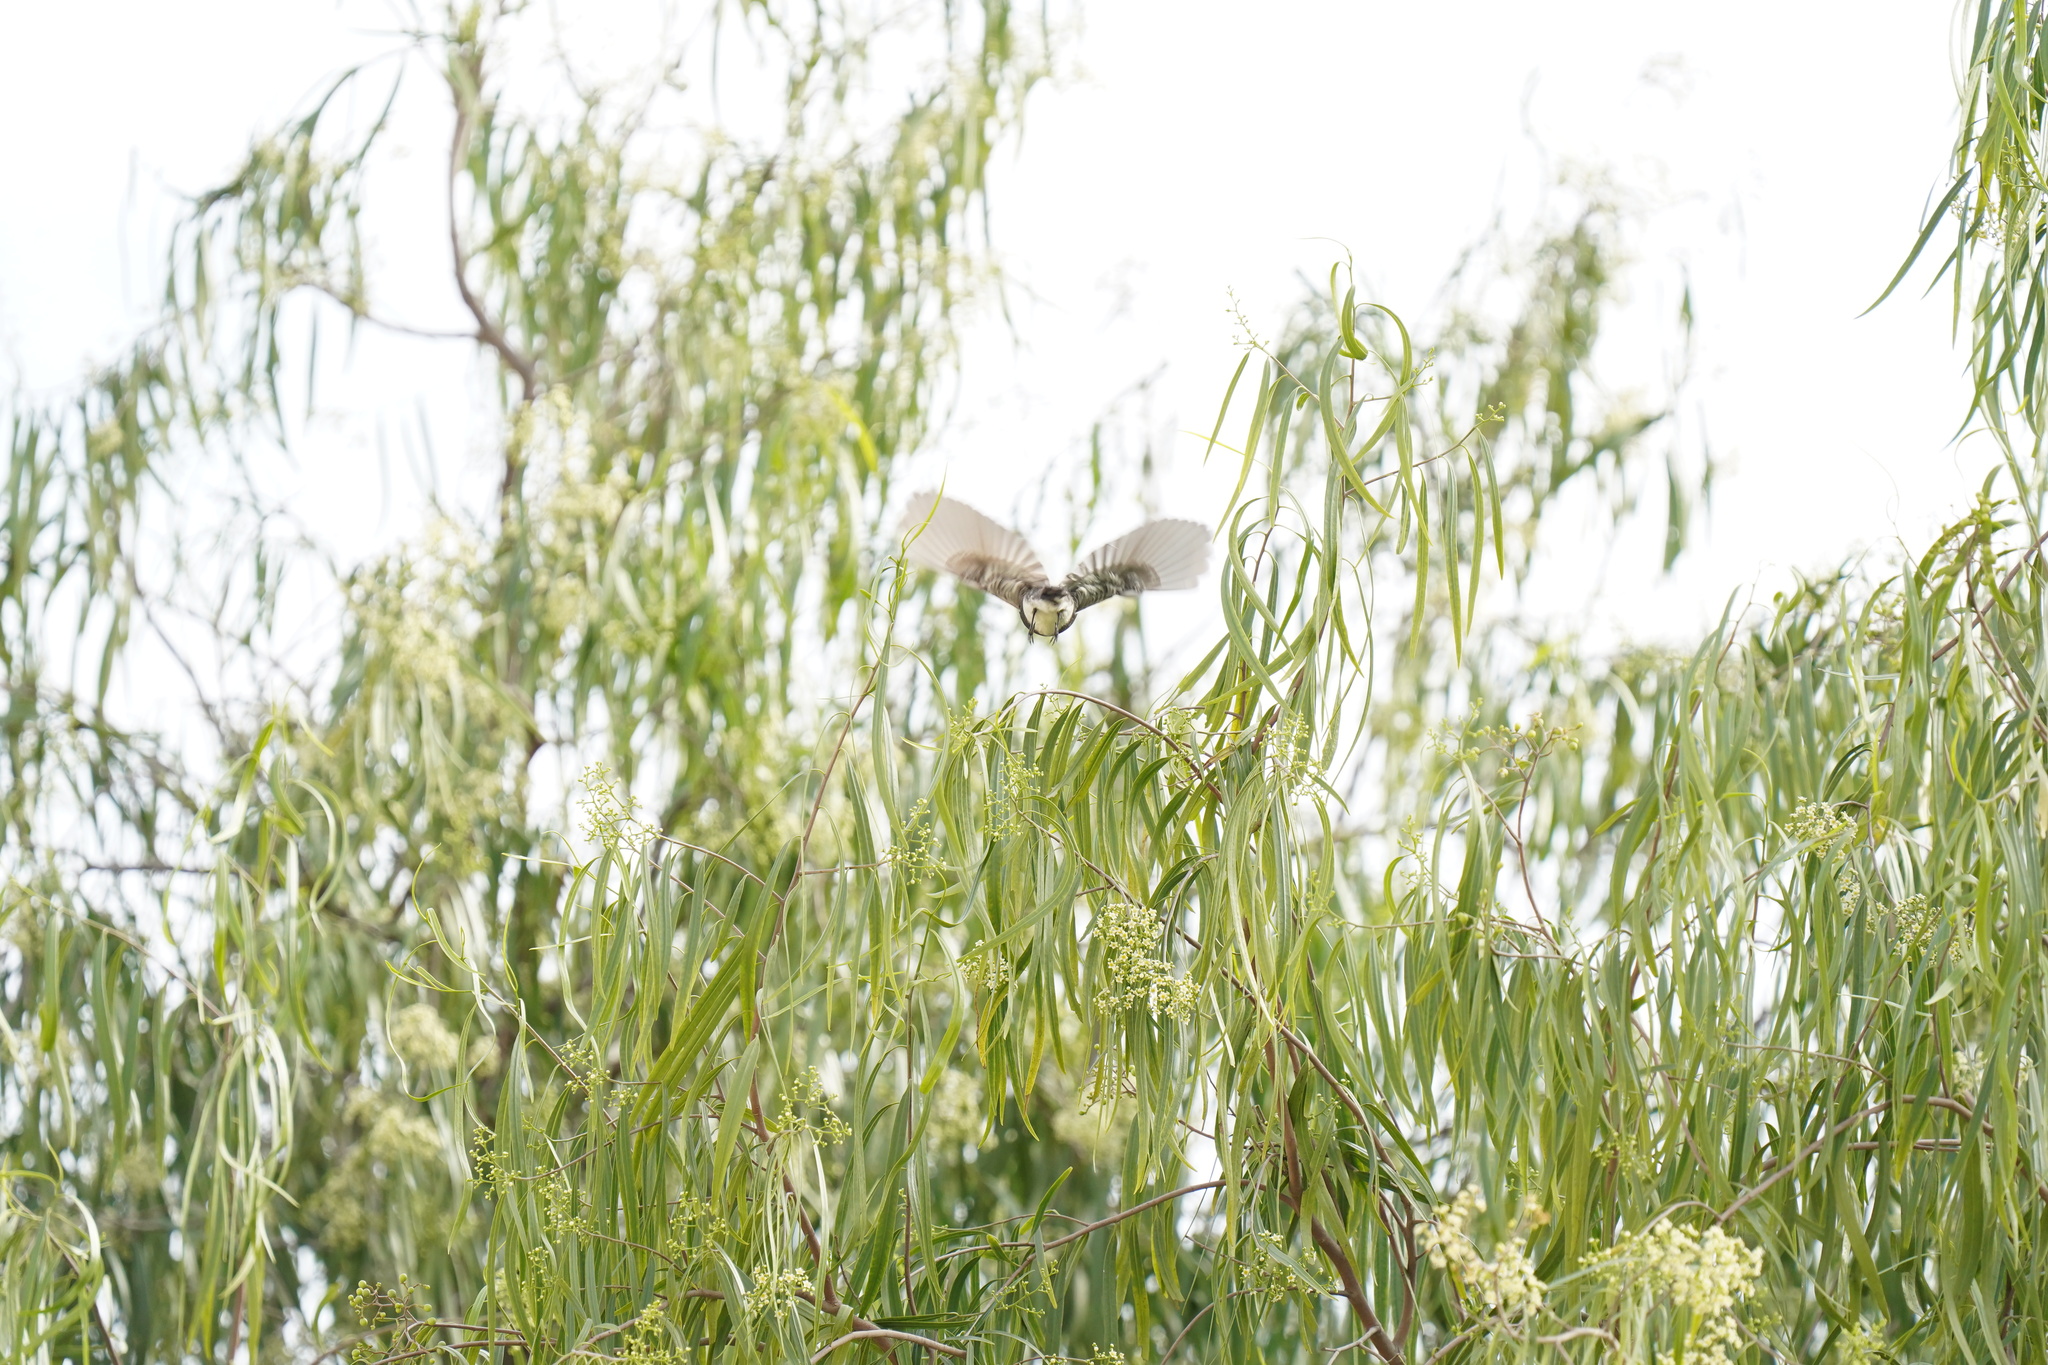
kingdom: Animalia
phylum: Chordata
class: Aves
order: Passeriformes
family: Tyrannidae
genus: Sayornis
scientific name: Sayornis nigricans
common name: Black phoebe
